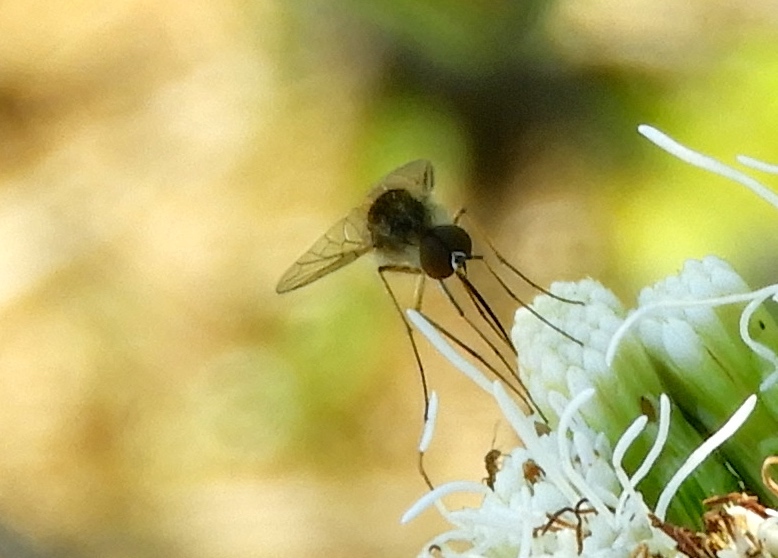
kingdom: Animalia
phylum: Arthropoda
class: Insecta
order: Diptera
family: Bombyliidae
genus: Geron
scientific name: Geron
